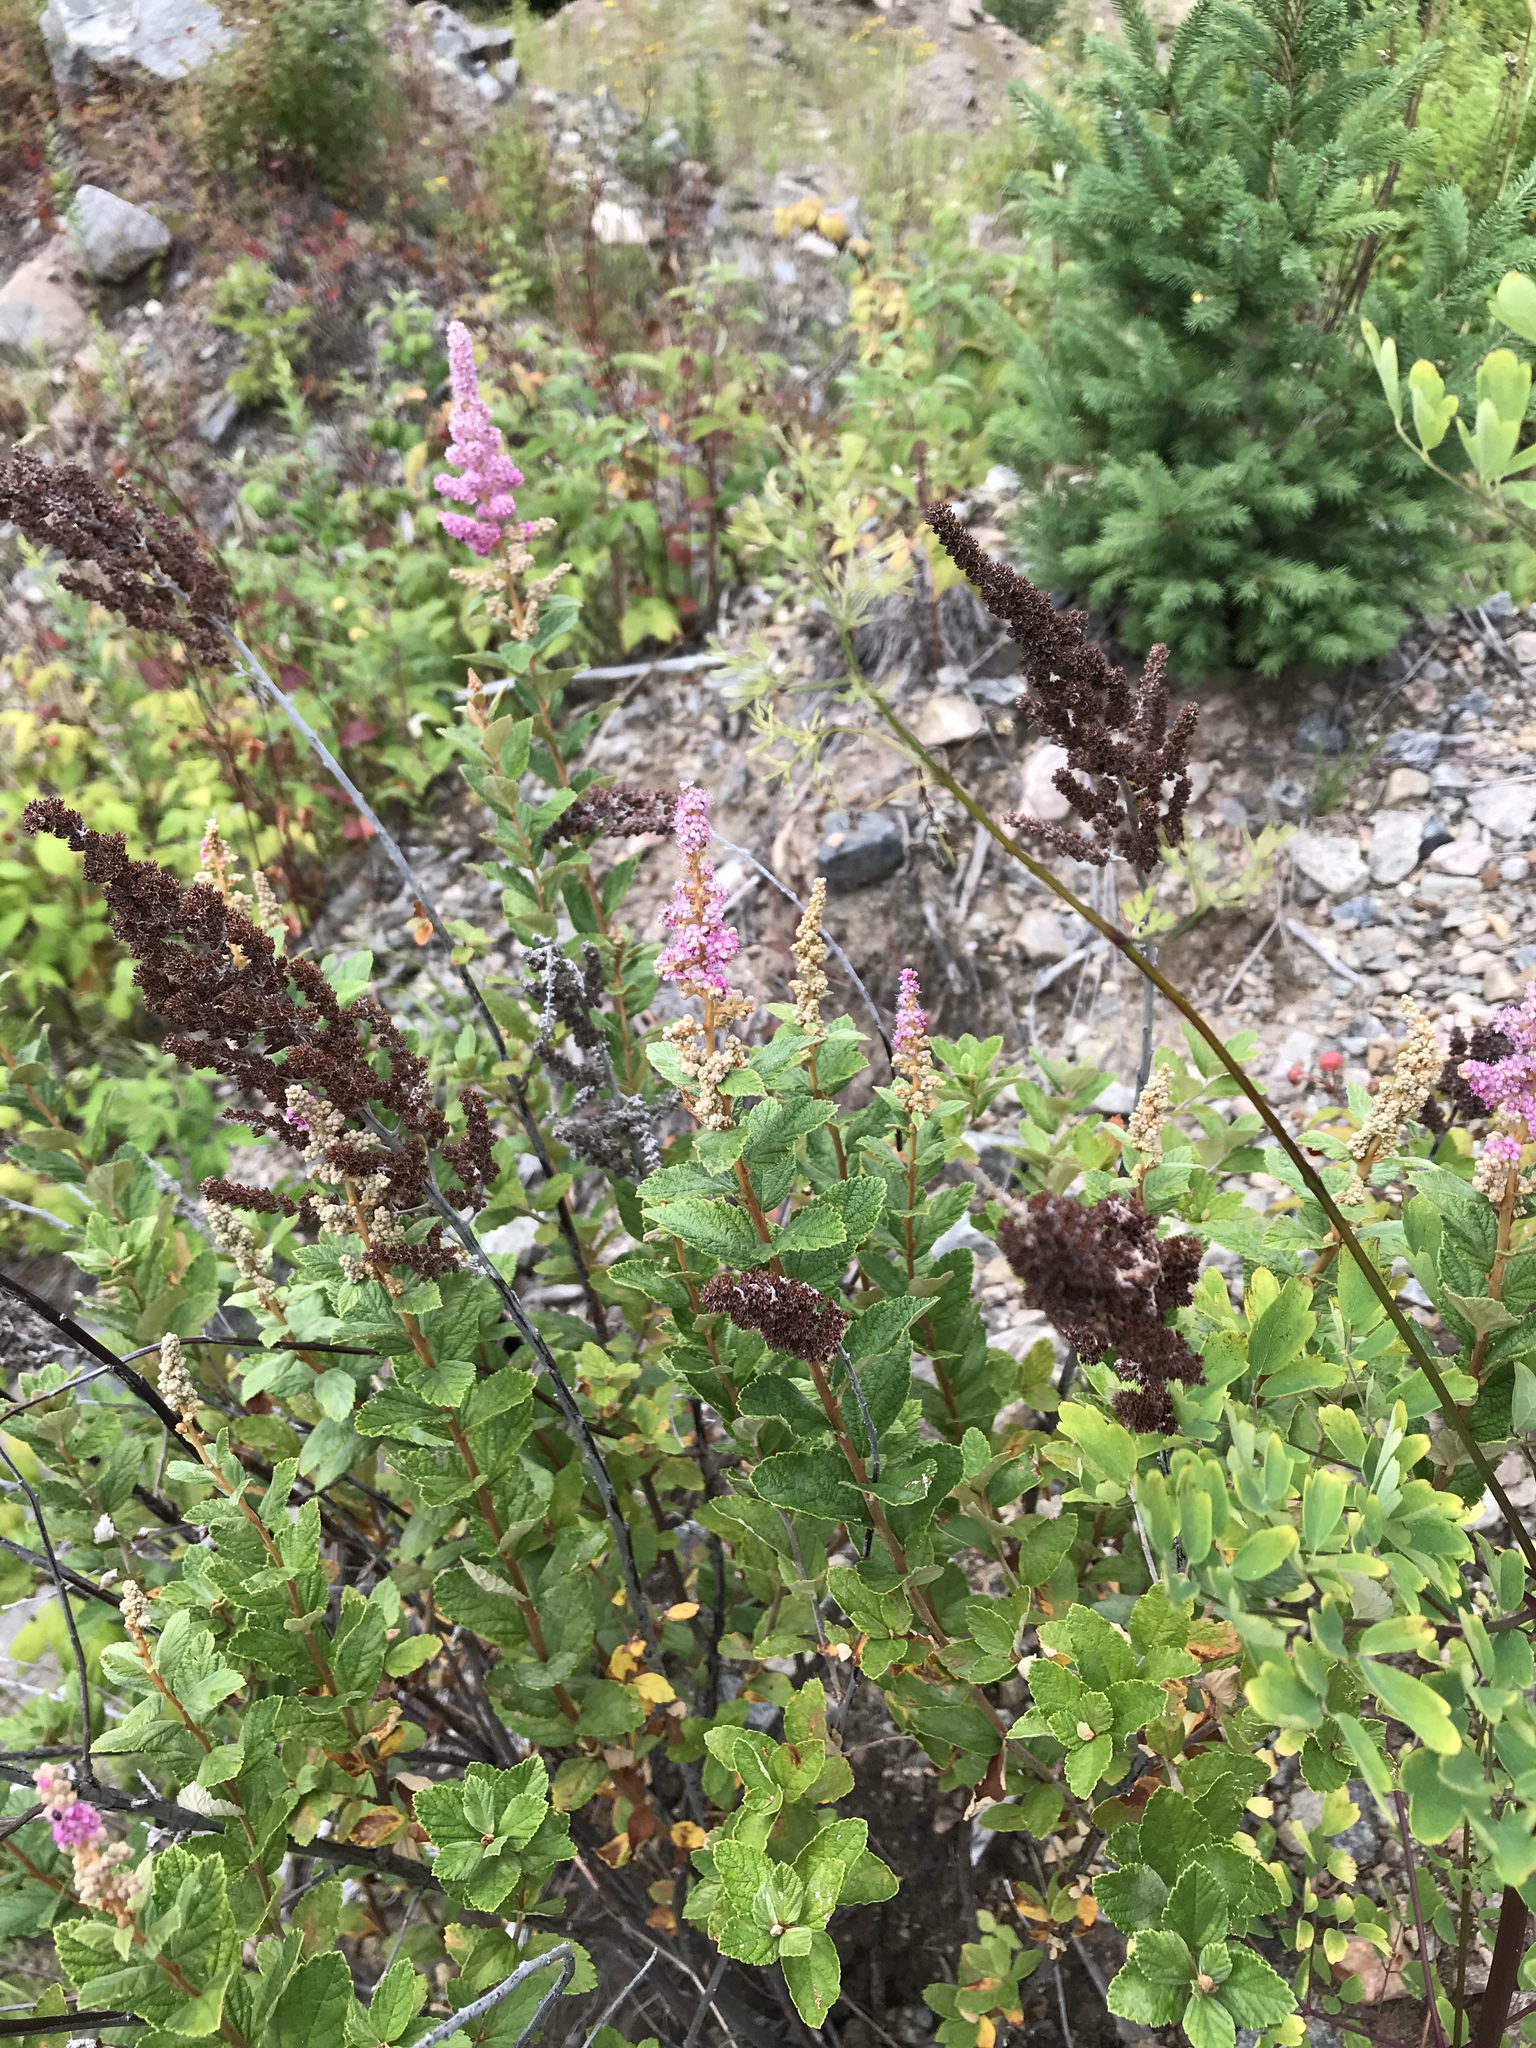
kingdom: Plantae
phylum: Tracheophyta
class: Magnoliopsida
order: Rosales
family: Rosaceae
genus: Spiraea
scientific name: Spiraea tomentosa
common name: Hardhack
